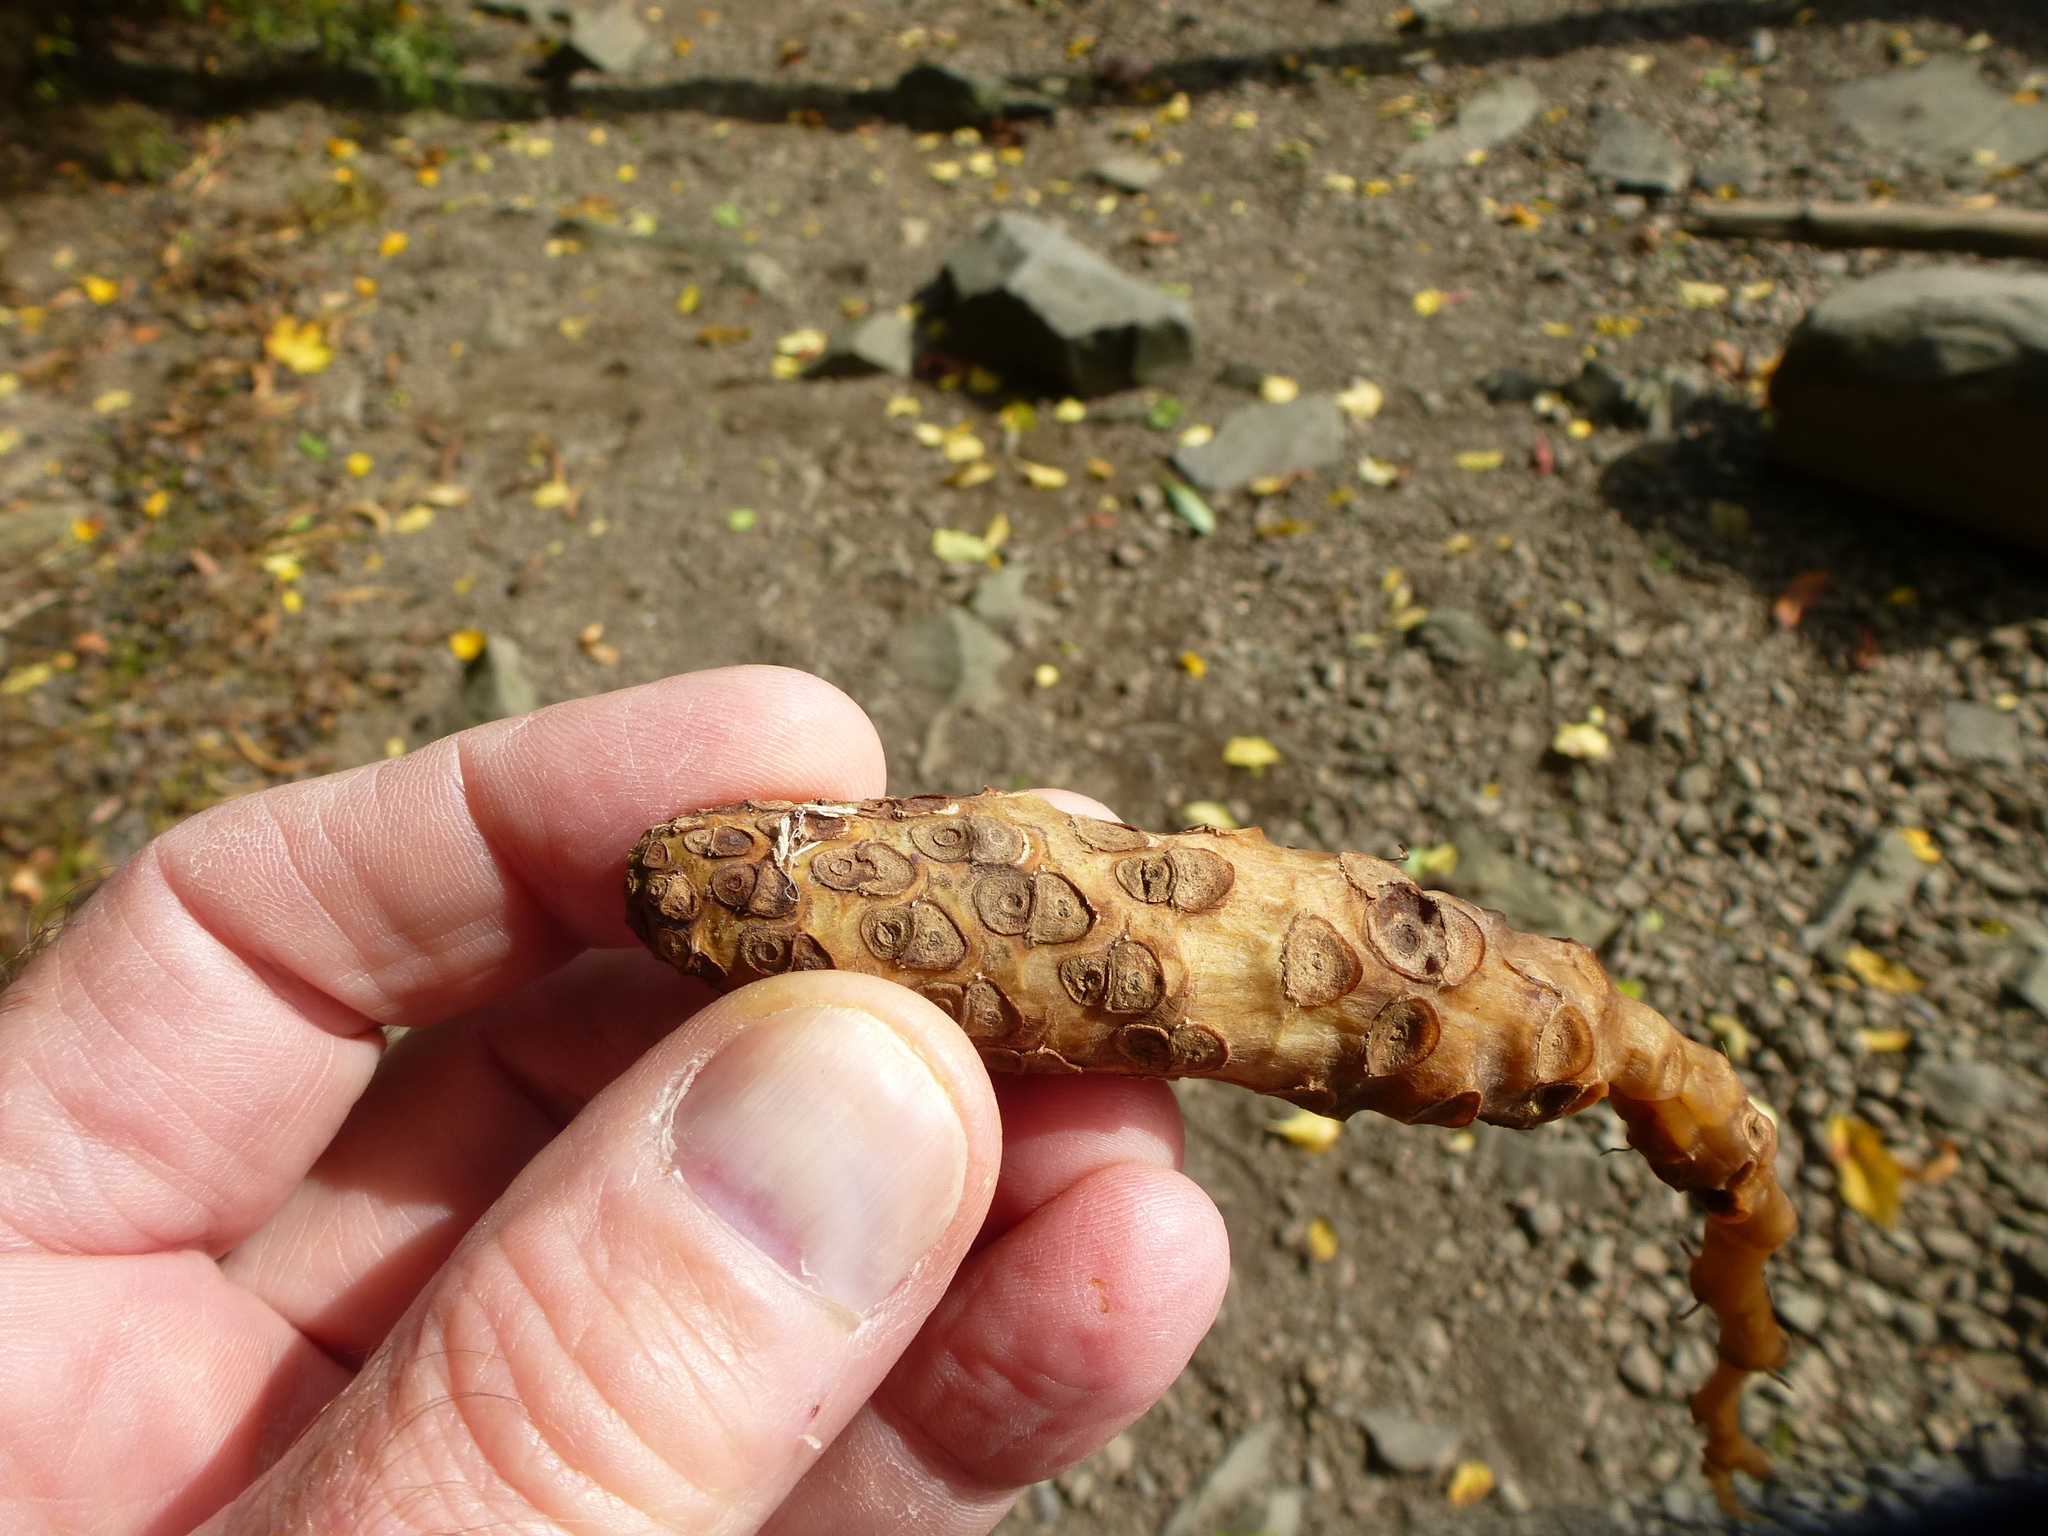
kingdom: Plantae
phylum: Tracheophyta
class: Magnoliopsida
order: Myrtales
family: Lythraceae
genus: Trapa
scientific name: Trapa natans
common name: Water chestnut
